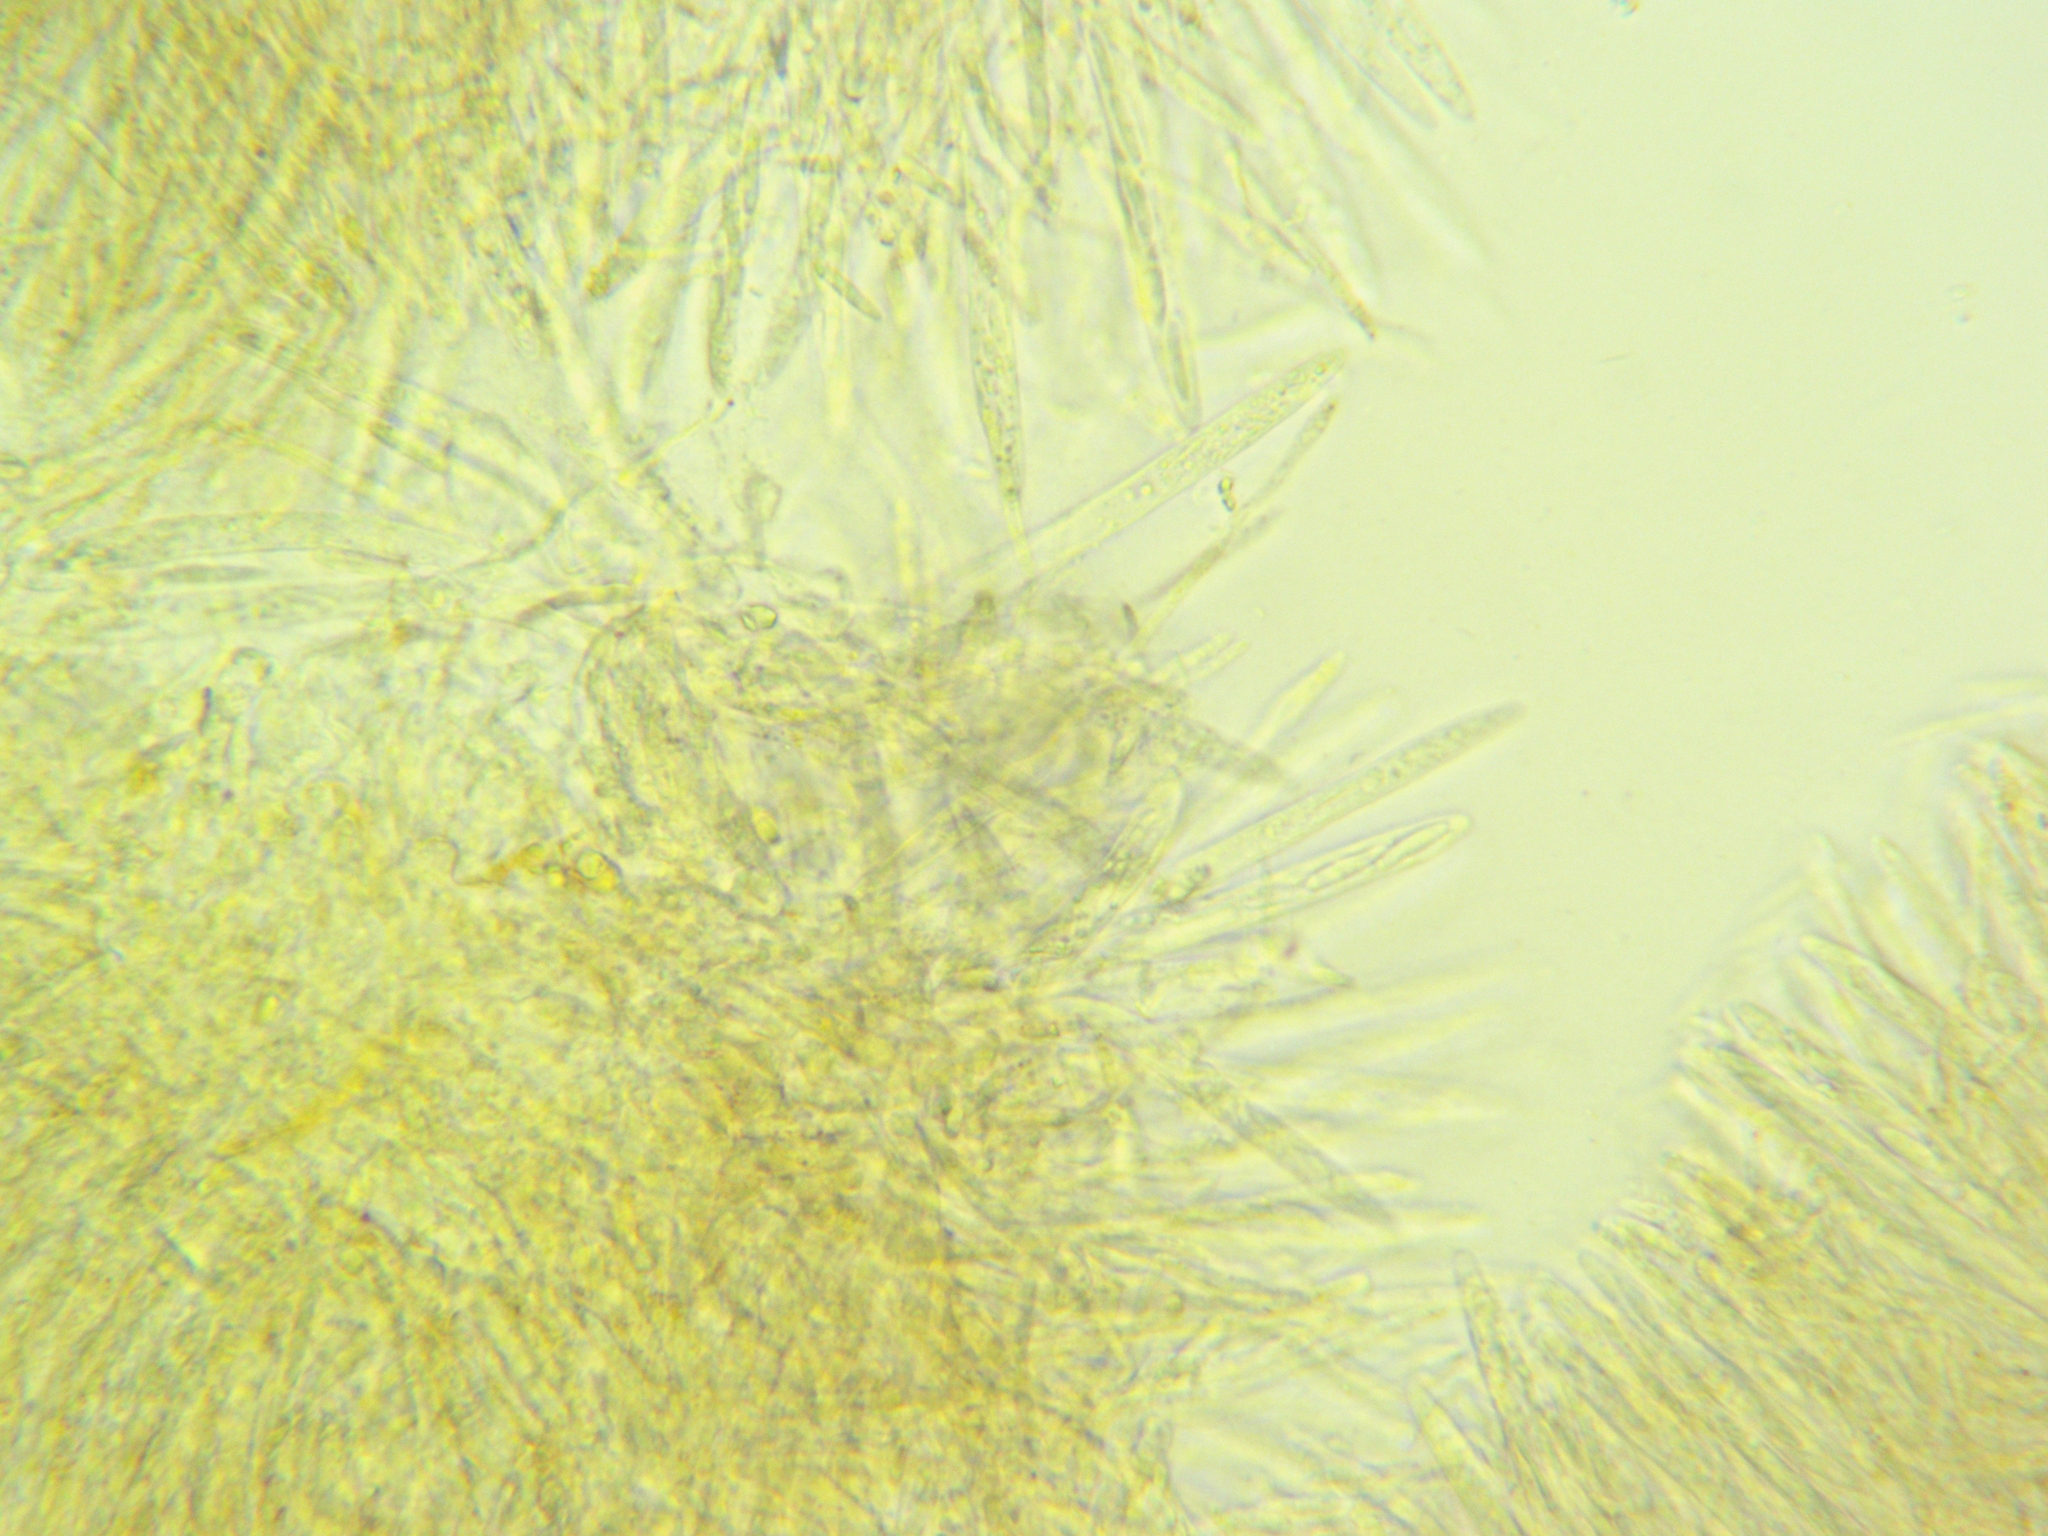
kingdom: Fungi
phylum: Ascomycota
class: Leotiomycetes
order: Helotiales
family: Sclerotiniaceae
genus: Mitrula
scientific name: Mitrula elegans
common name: Swamp beacon
